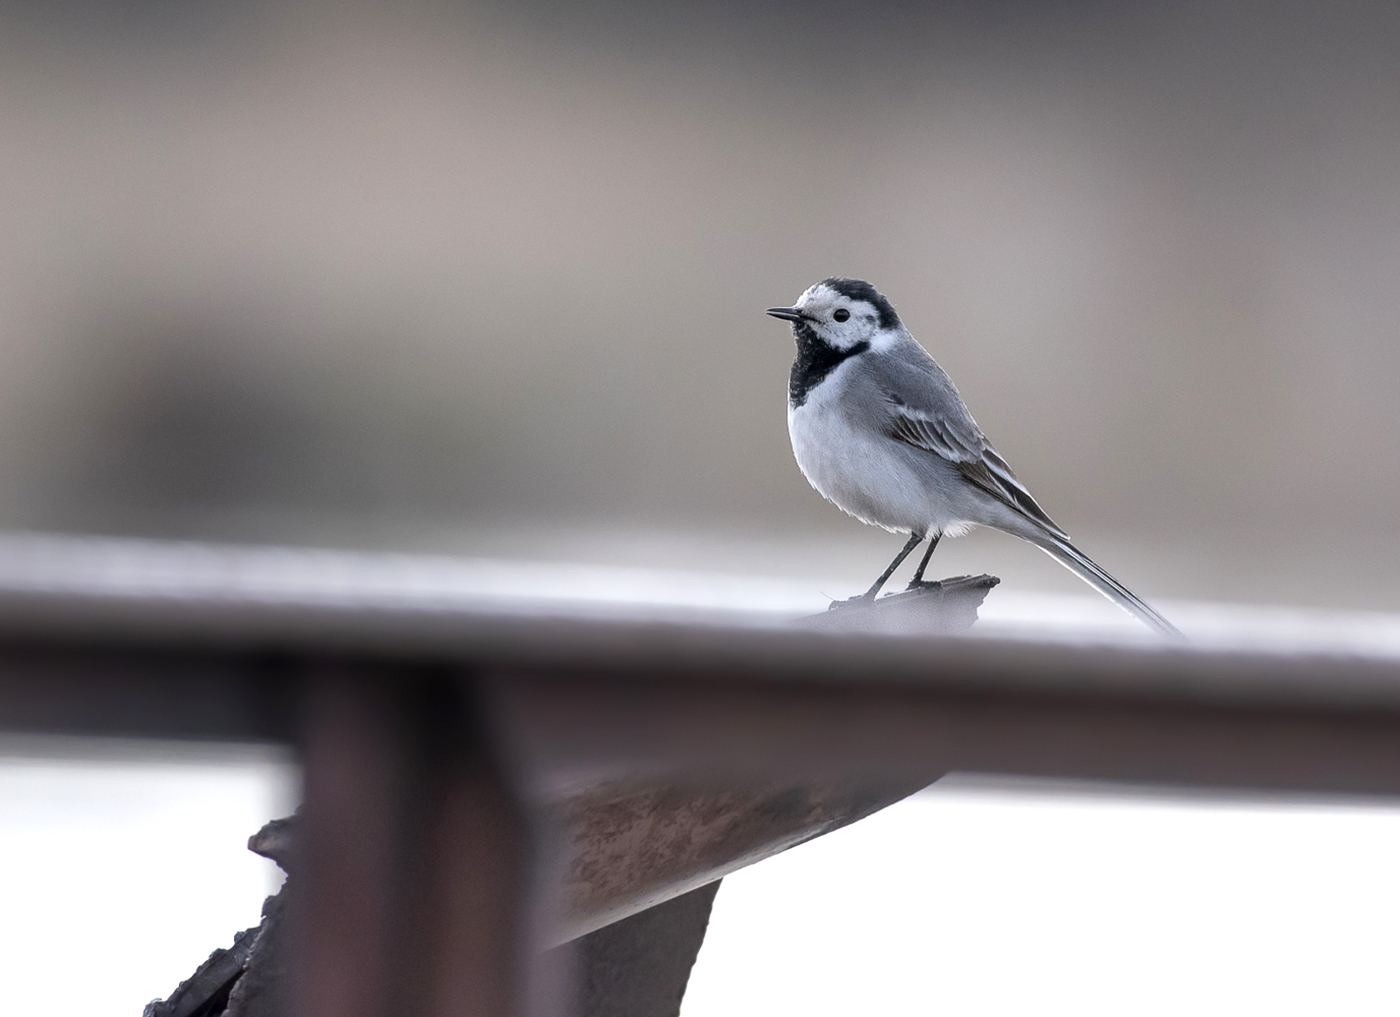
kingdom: Animalia
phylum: Chordata
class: Aves
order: Passeriformes
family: Motacillidae
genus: Motacilla
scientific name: Motacilla alba
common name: White wagtail
